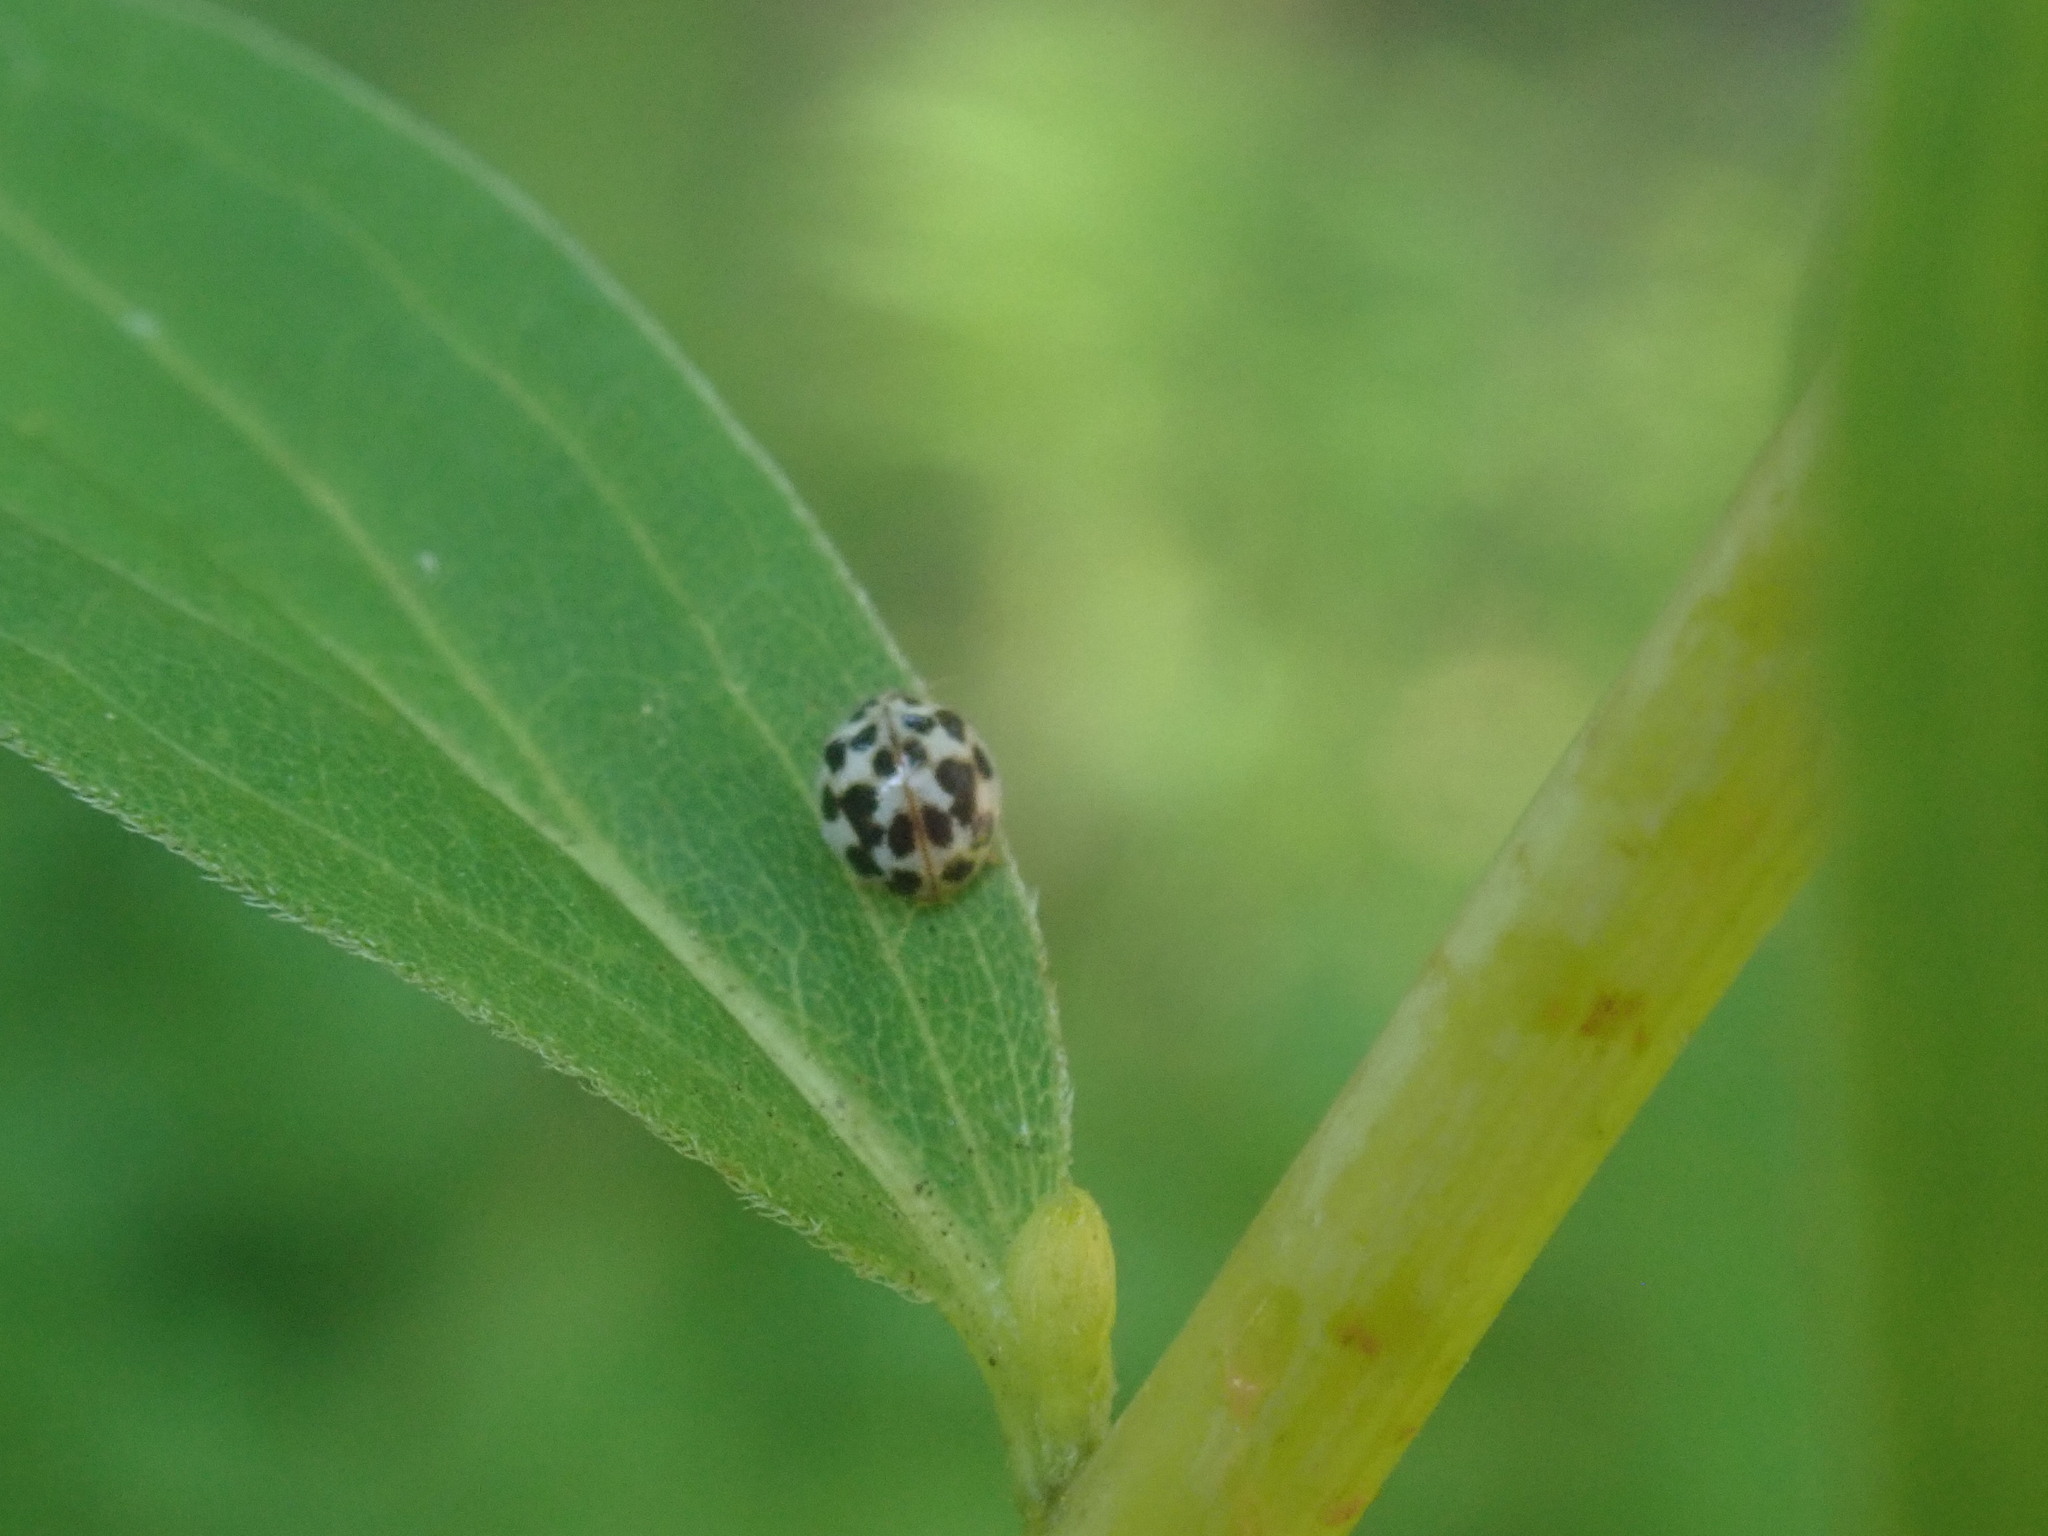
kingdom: Animalia
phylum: Arthropoda
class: Insecta
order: Coleoptera
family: Coccinellidae
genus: Psyllobora
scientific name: Psyllobora vigintimaculata
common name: Ladybird beetle
